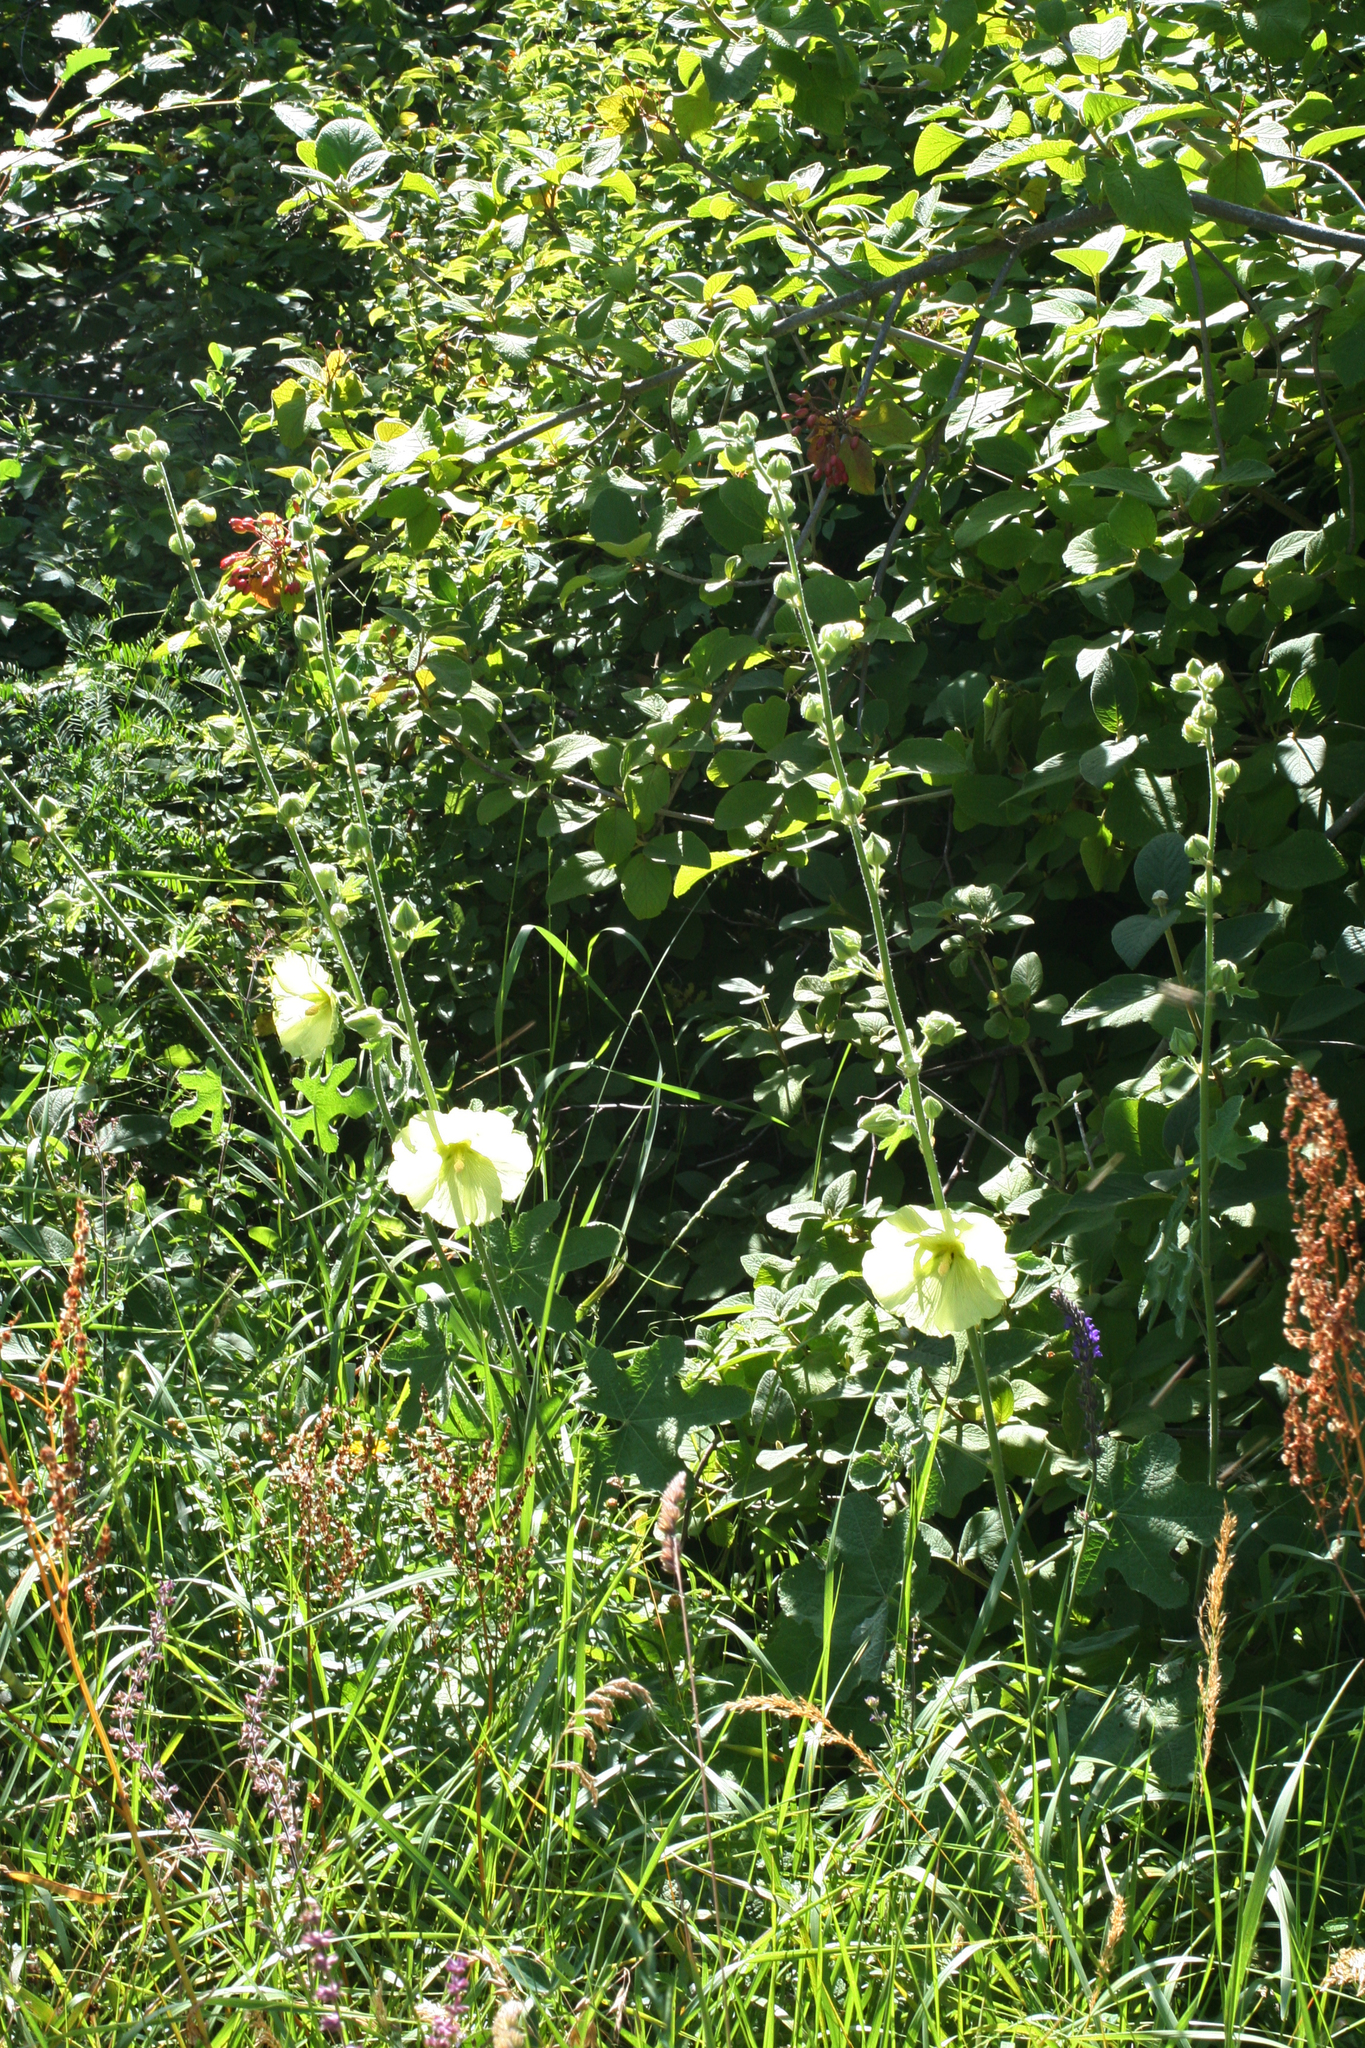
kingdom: Plantae
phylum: Tracheophyta
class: Magnoliopsida
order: Malvales
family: Malvaceae
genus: Alcea
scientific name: Alcea rugosa
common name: Russian hollyhock
